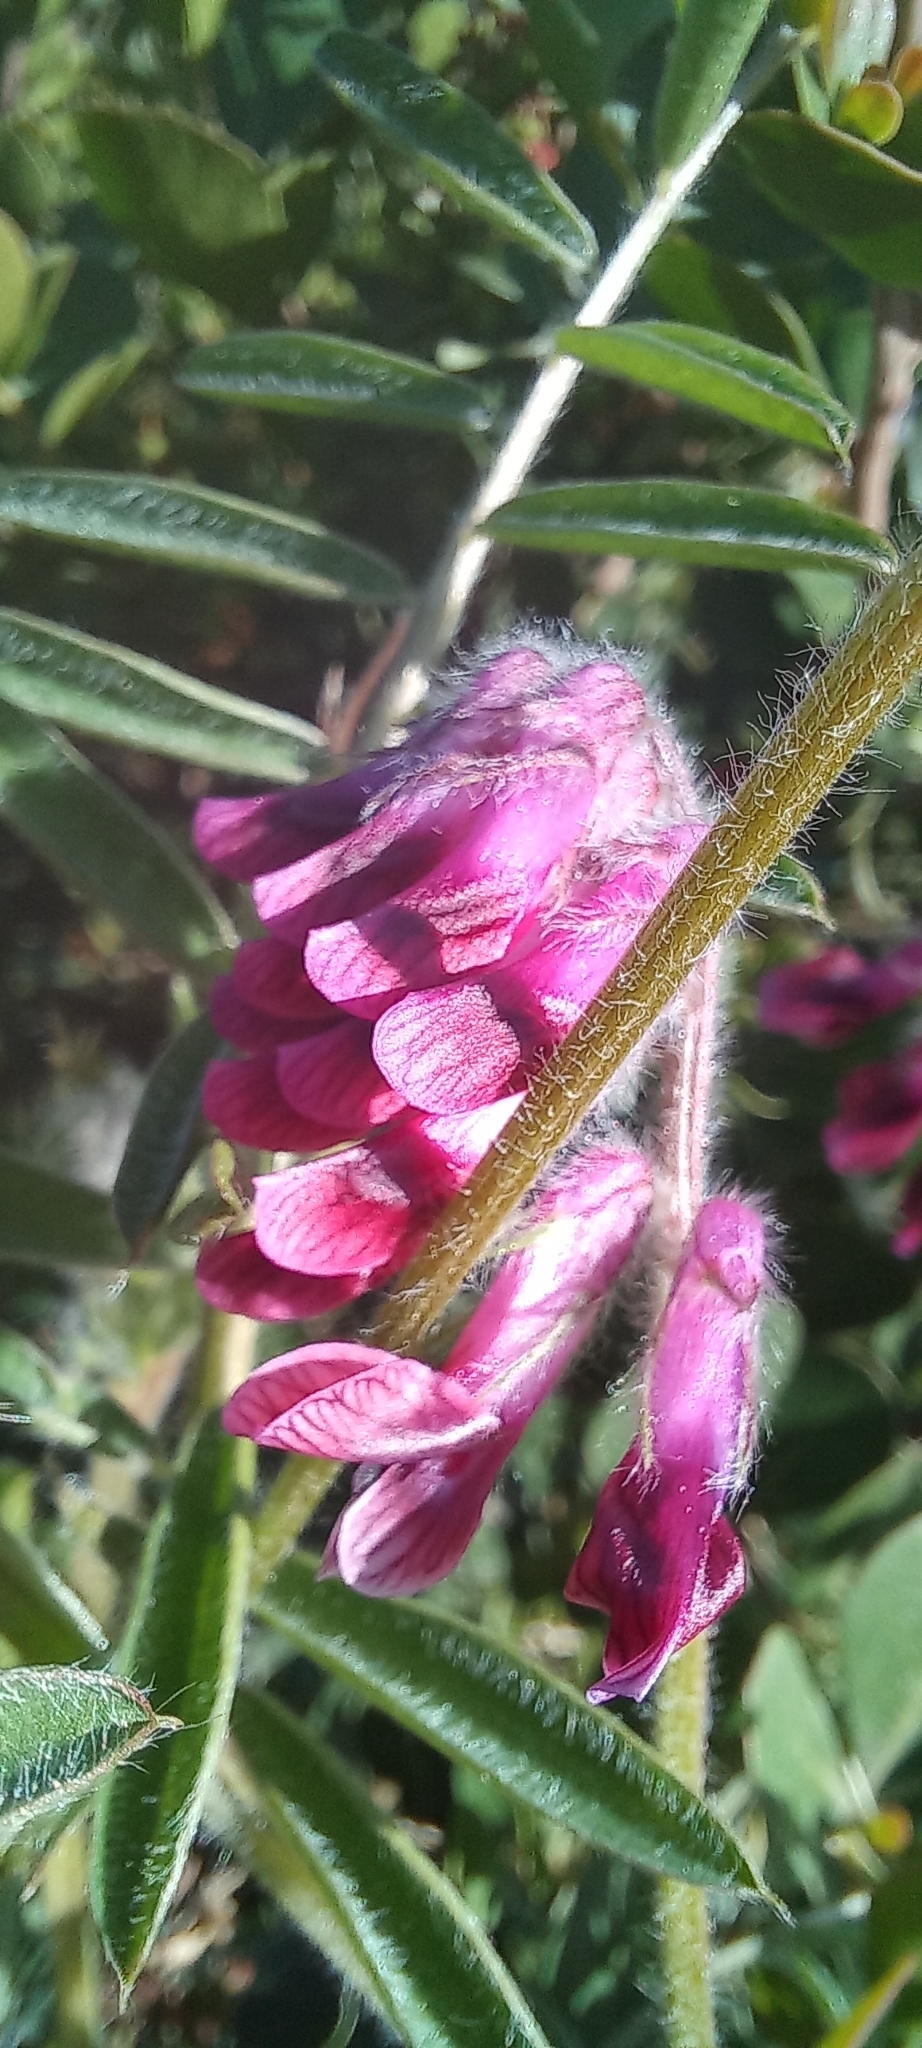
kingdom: Plantae
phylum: Tracheophyta
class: Magnoliopsida
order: Fabales
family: Fabaceae
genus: Vicia
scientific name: Vicia benghalensis
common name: Purple vetch
